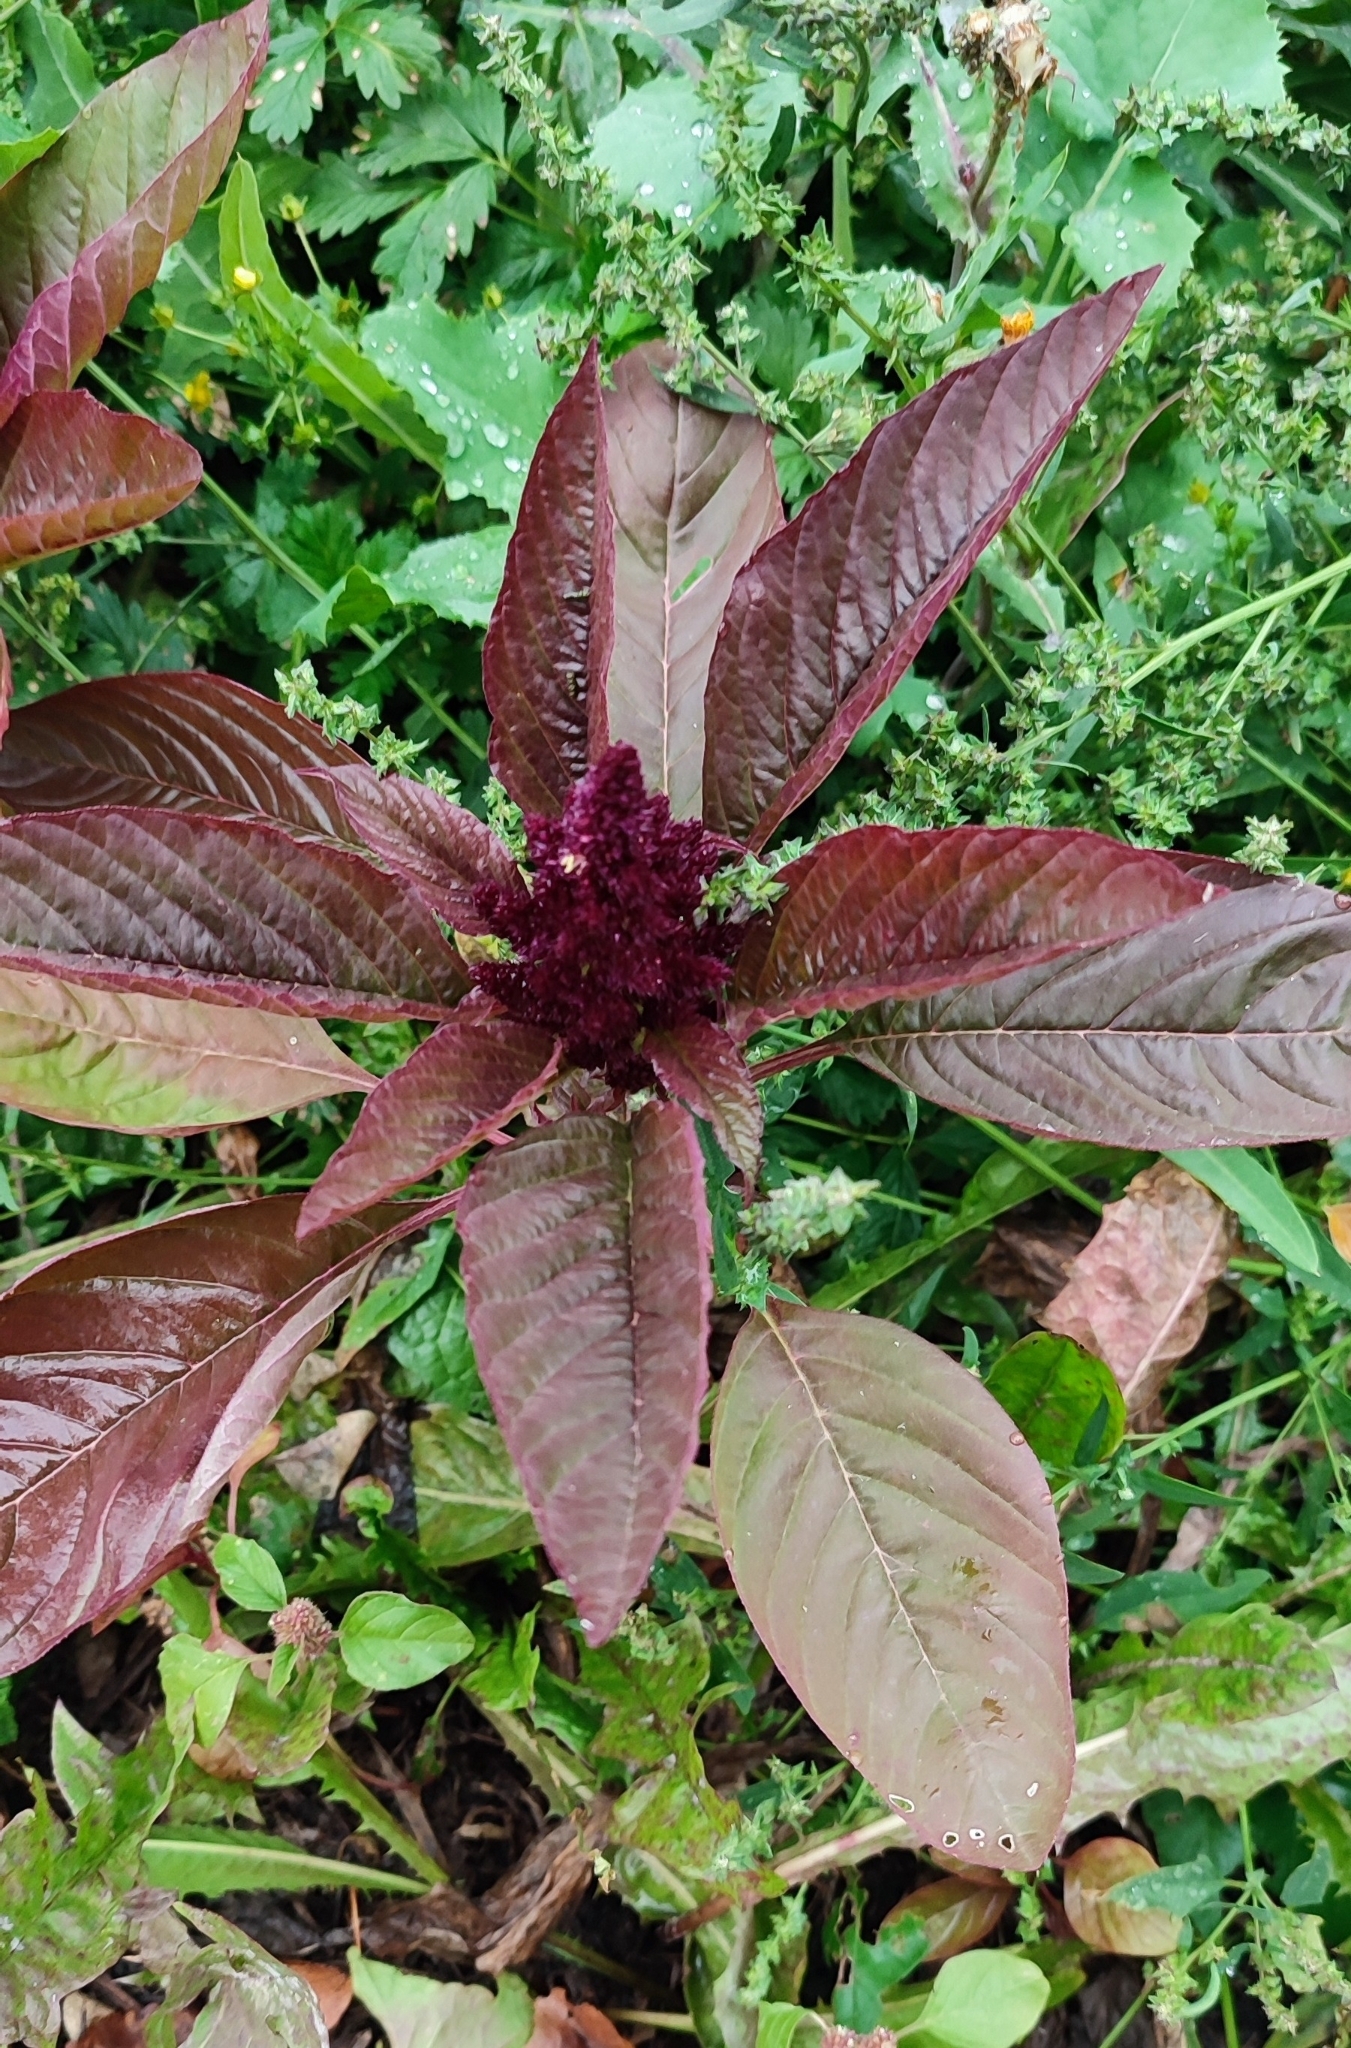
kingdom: Plantae
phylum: Tracheophyta
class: Magnoliopsida
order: Caryophyllales
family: Amaranthaceae
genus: Amaranthus
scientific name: Amaranthus cruentus
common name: Purple amaranth
